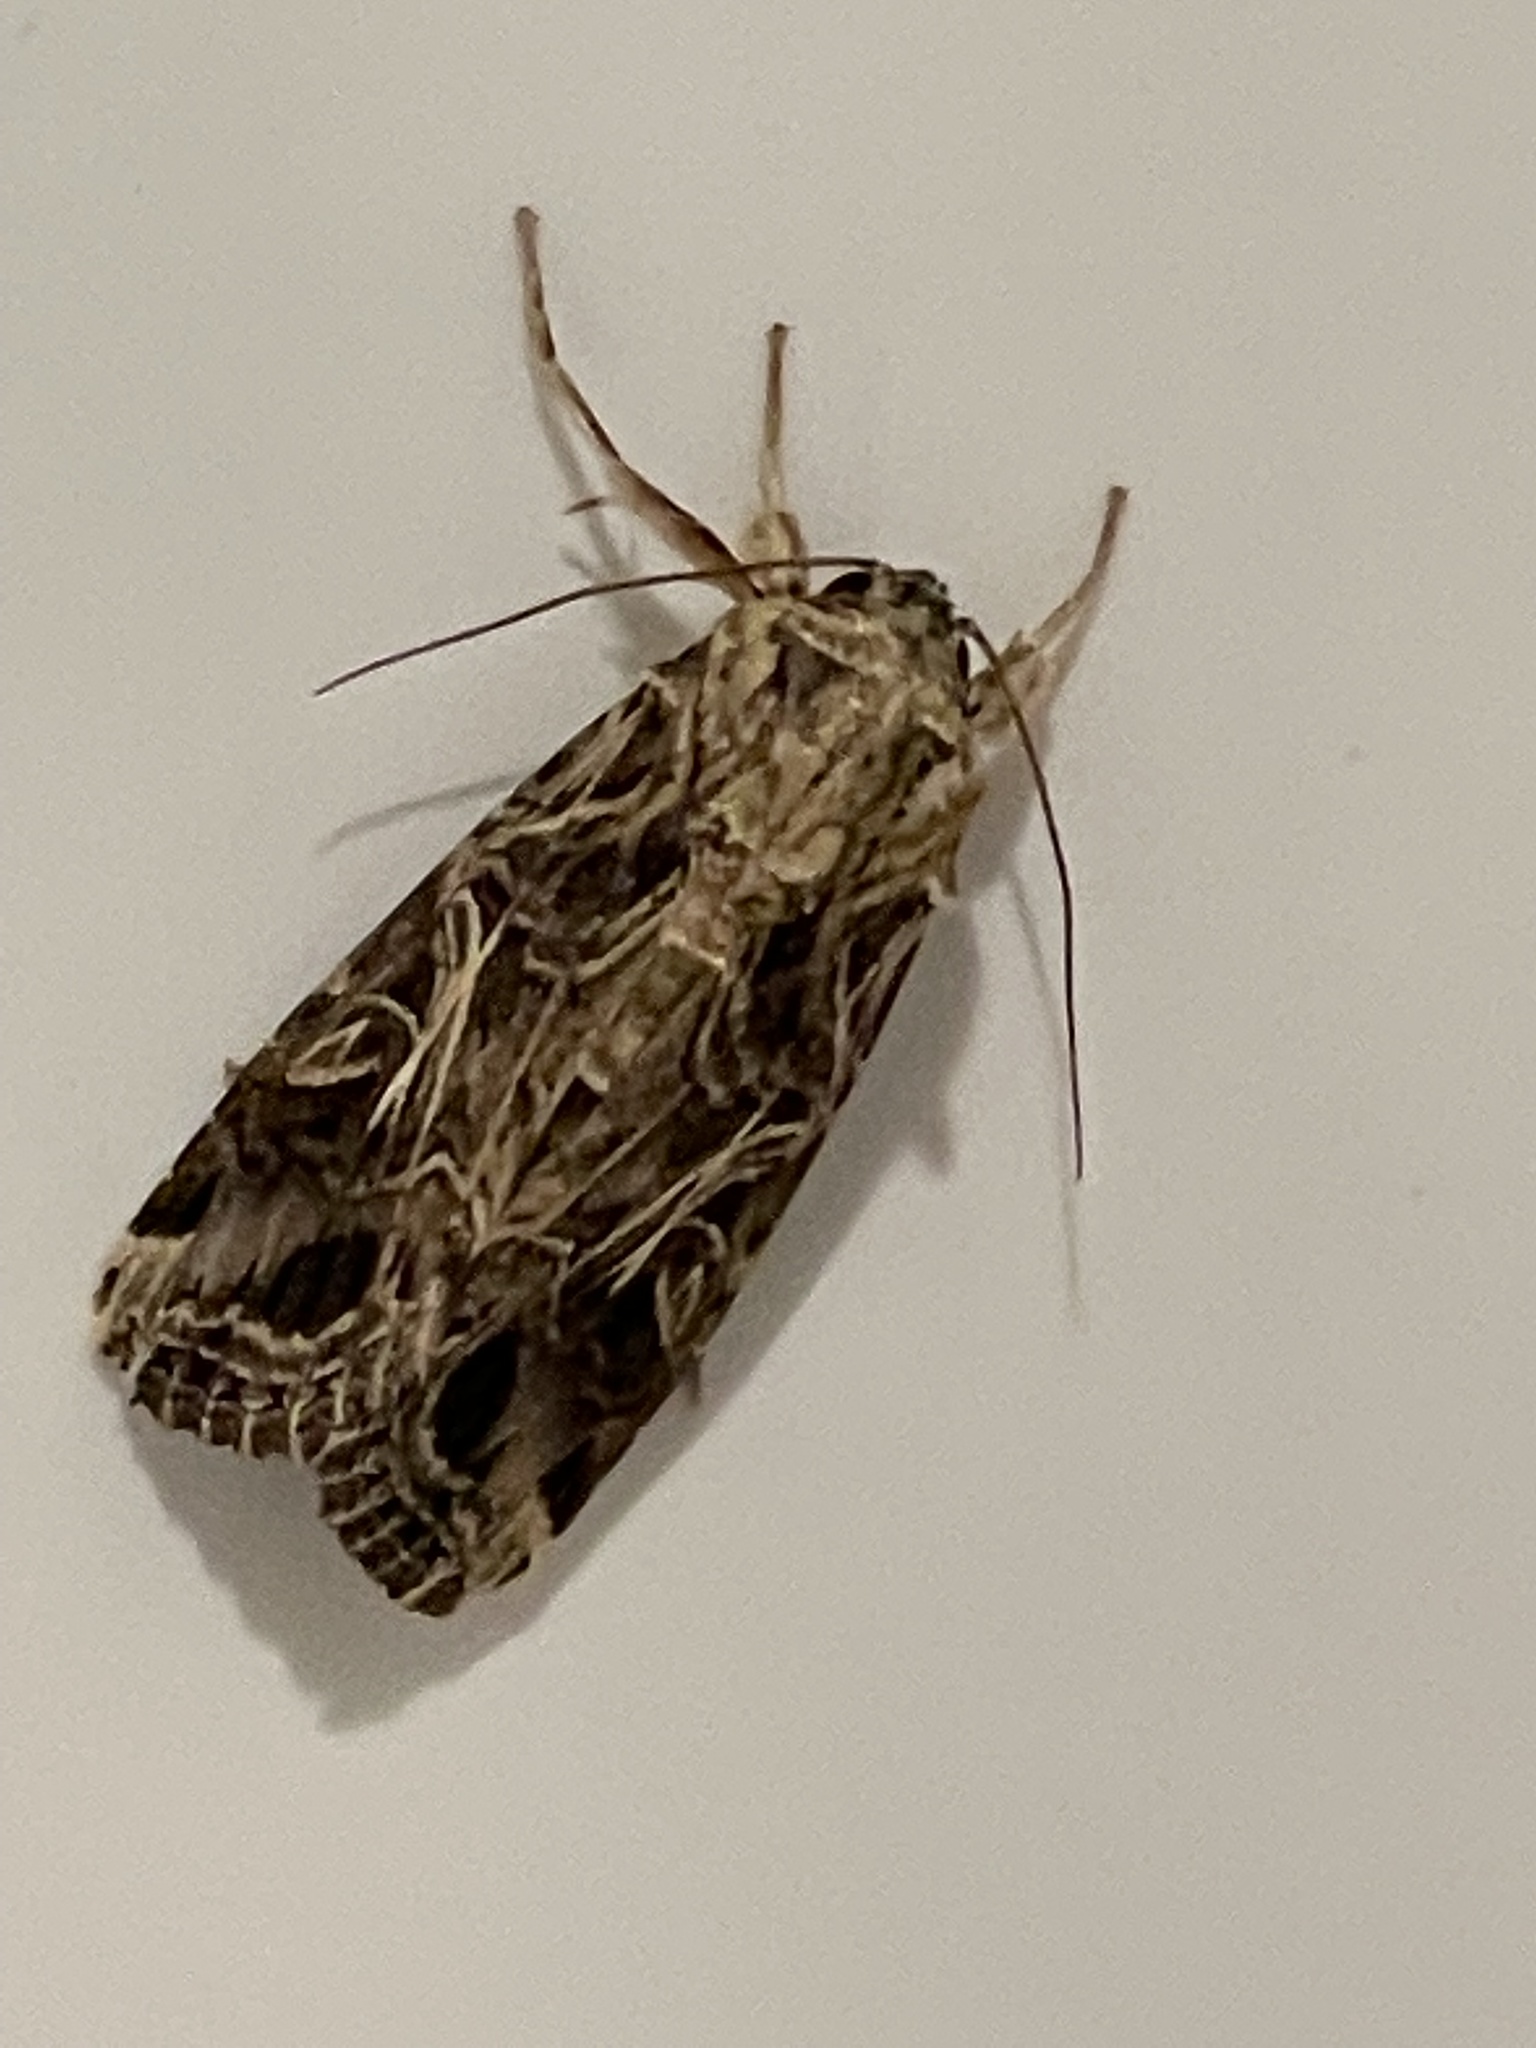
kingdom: Animalia
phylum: Arthropoda
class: Insecta
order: Lepidoptera
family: Noctuidae
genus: Spodoptera
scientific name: Spodoptera litura
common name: Asian cotton leafworm
